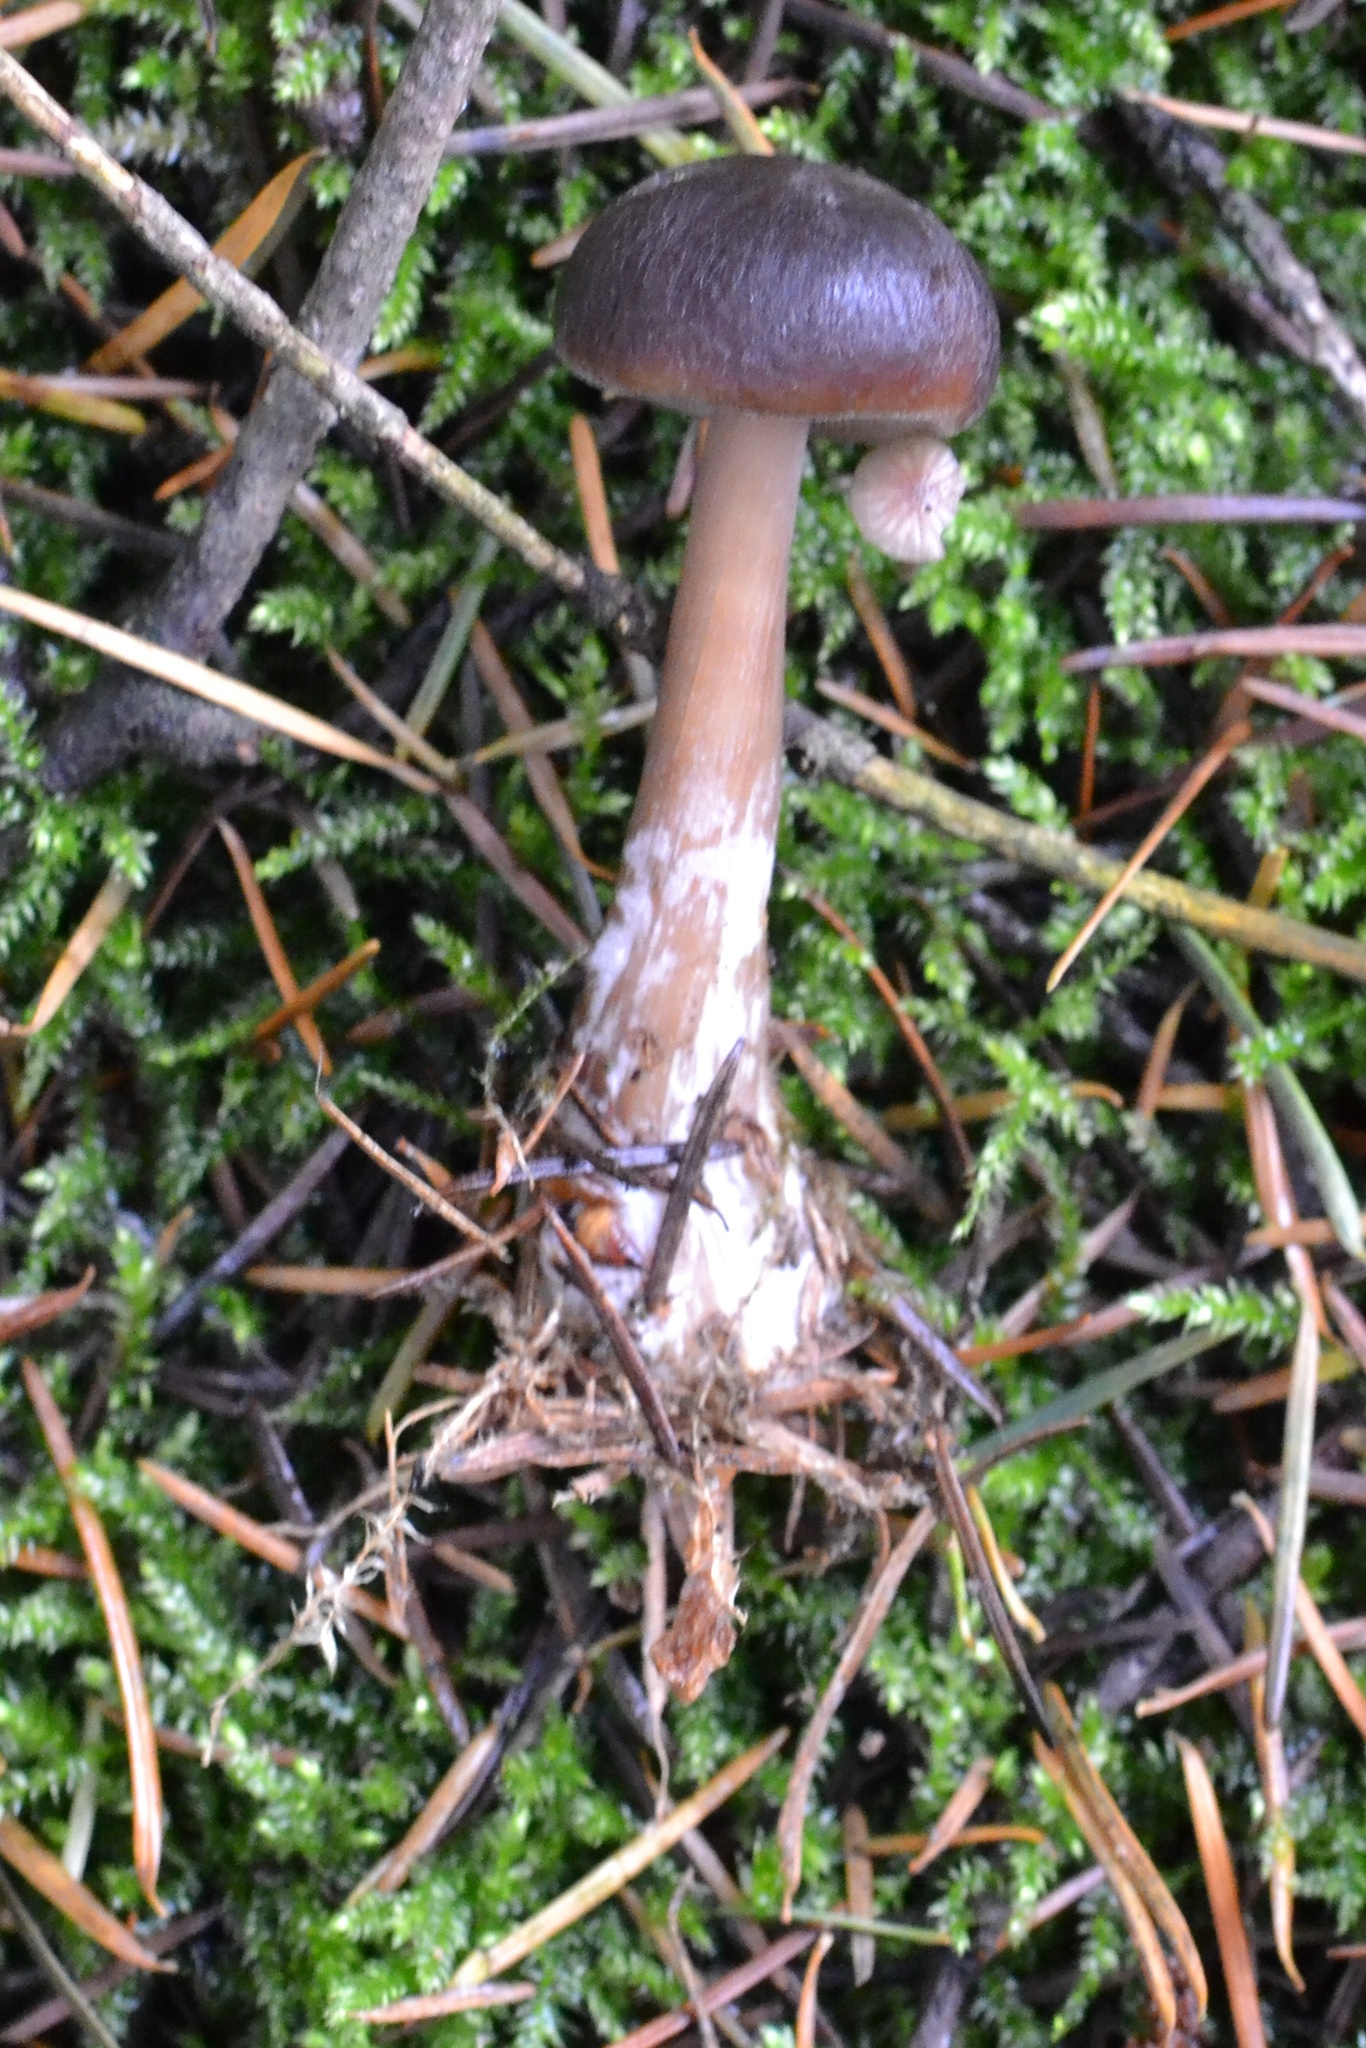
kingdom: Fungi
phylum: Basidiomycota
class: Agaricomycetes
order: Agaricales
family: Omphalotaceae
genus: Rhodocollybia
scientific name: Rhodocollybia butyracea
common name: Butter cap
